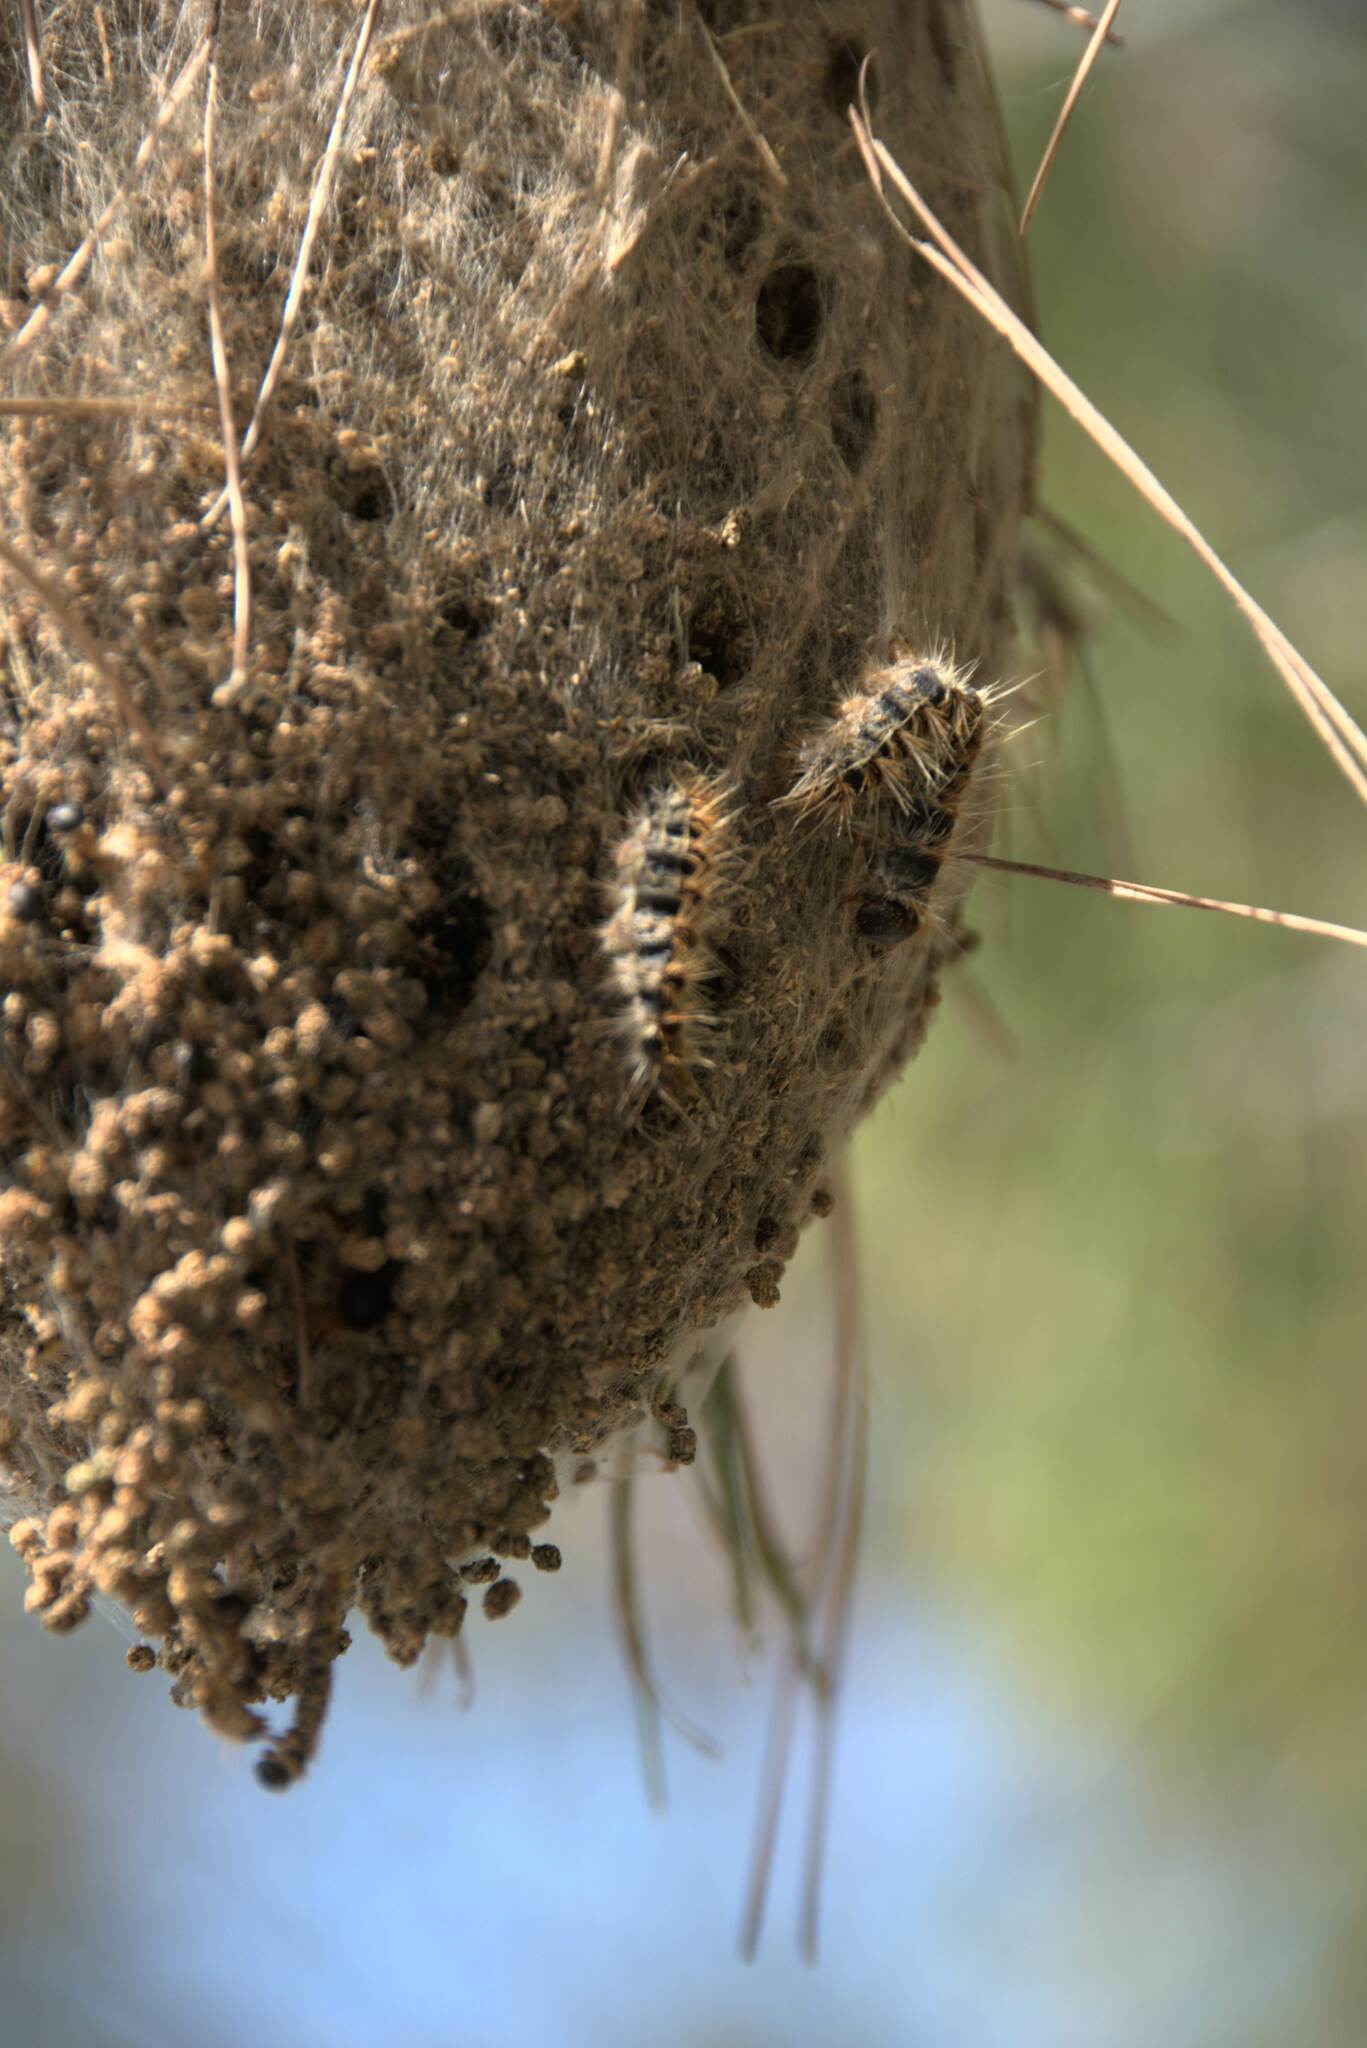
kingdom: Animalia
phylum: Arthropoda
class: Insecta
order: Lepidoptera
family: Notodontidae
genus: Thaumetopoea
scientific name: Thaumetopoea
